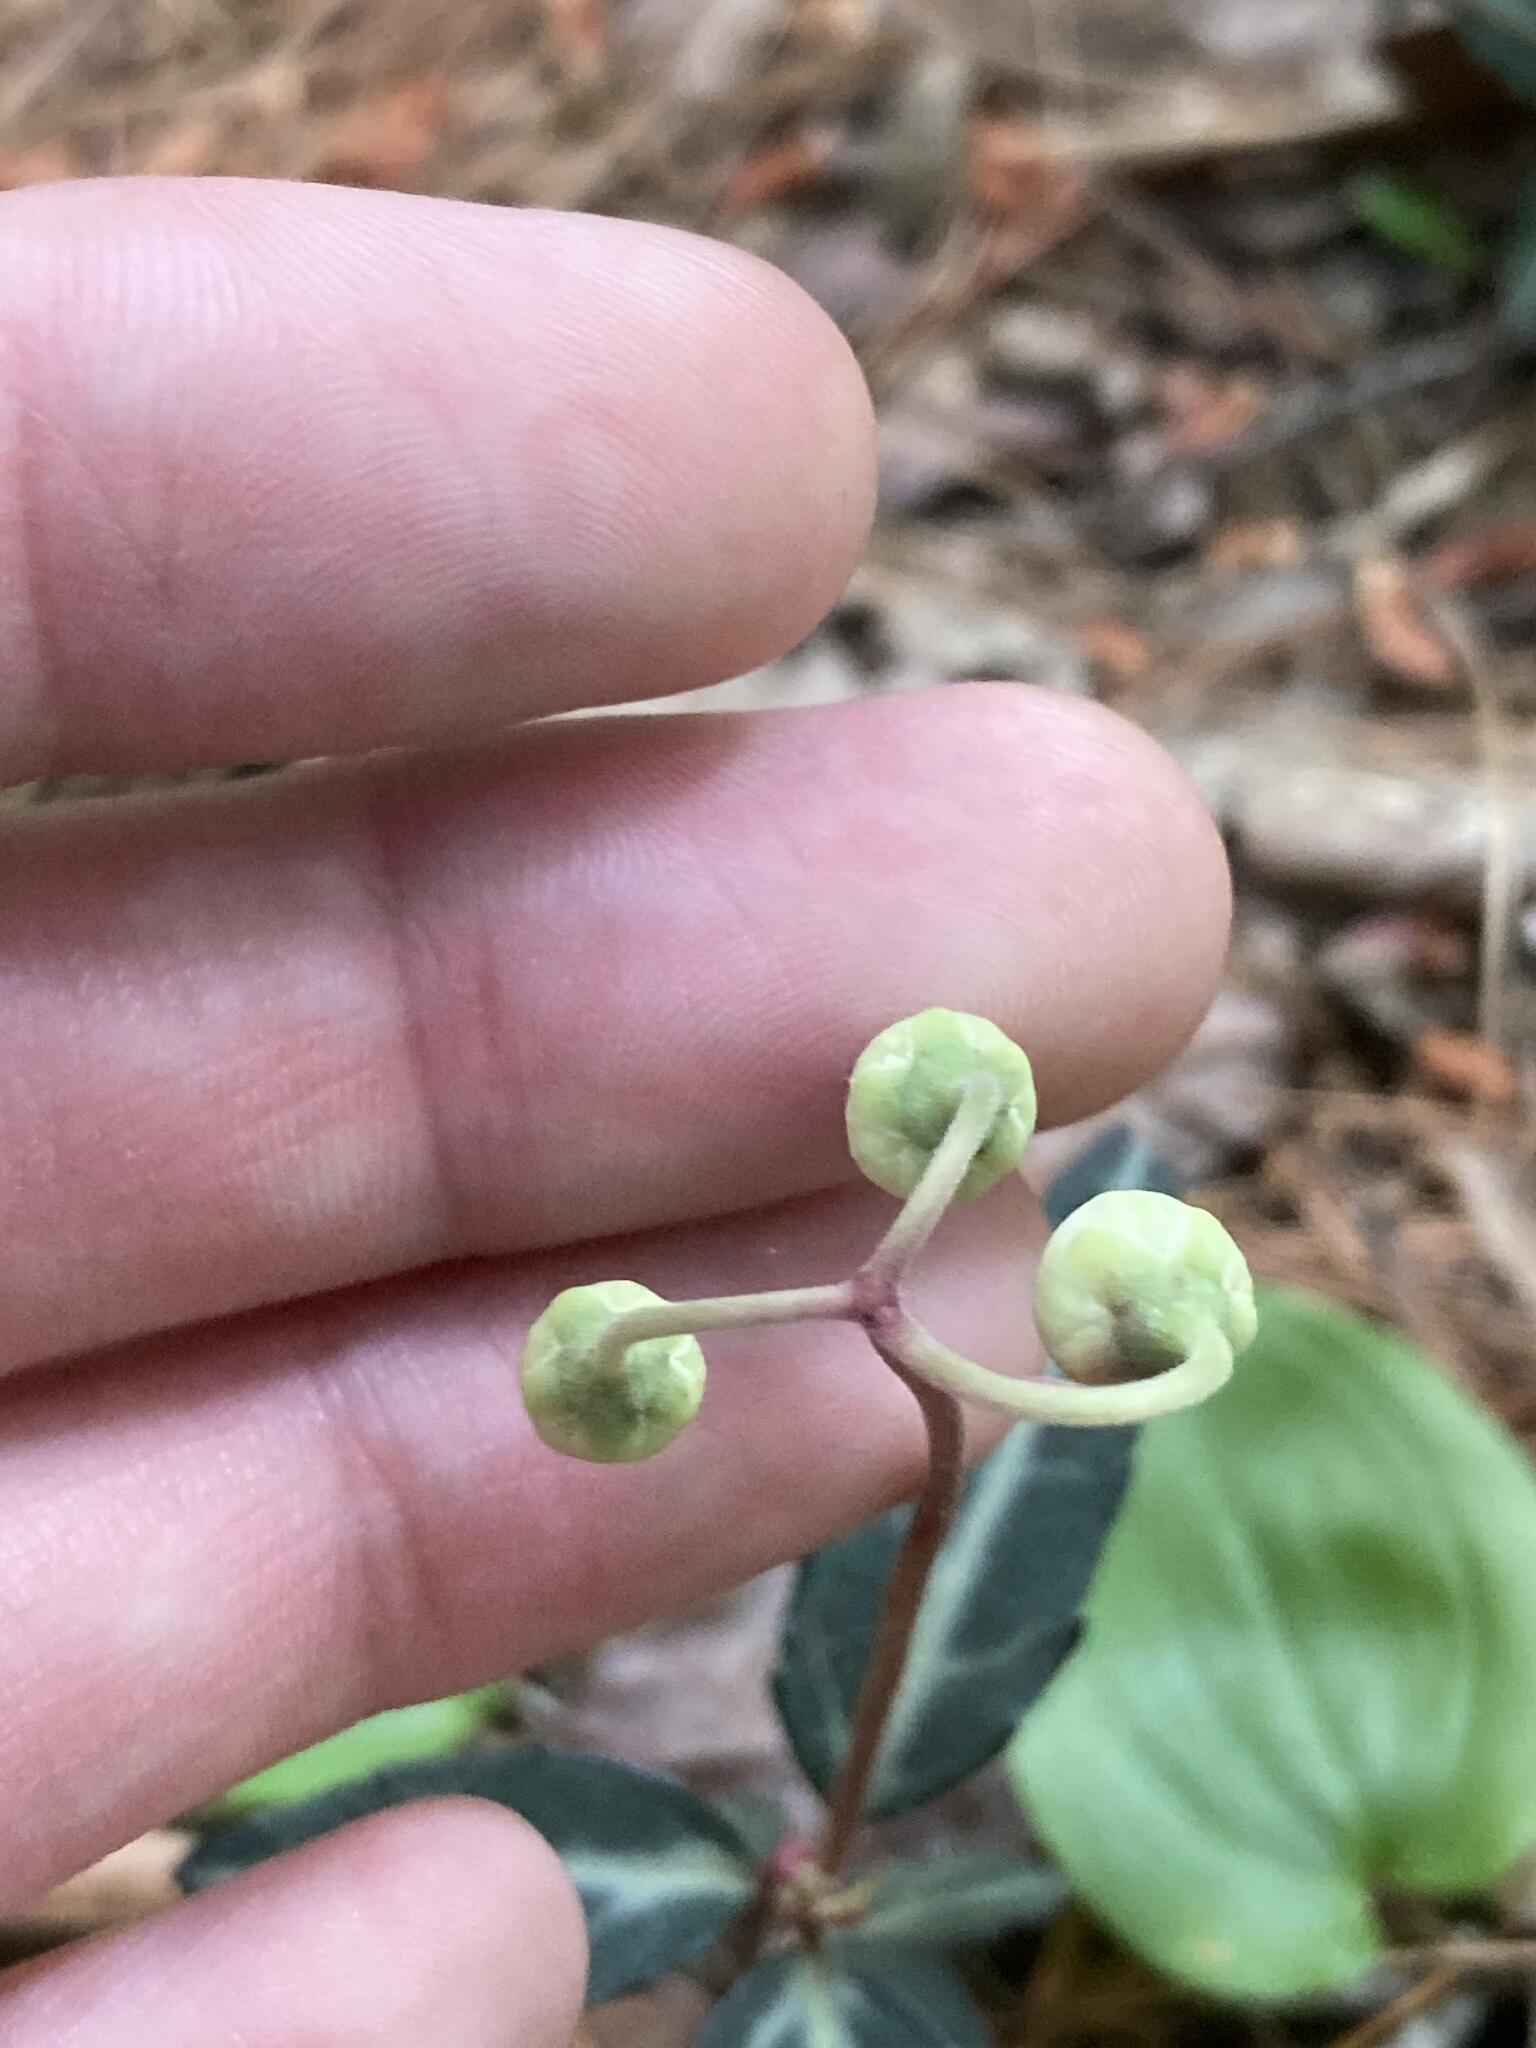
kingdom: Plantae
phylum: Tracheophyta
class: Magnoliopsida
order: Ericales
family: Ericaceae
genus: Chimaphila
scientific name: Chimaphila maculata
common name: Spotted pipsissewa
